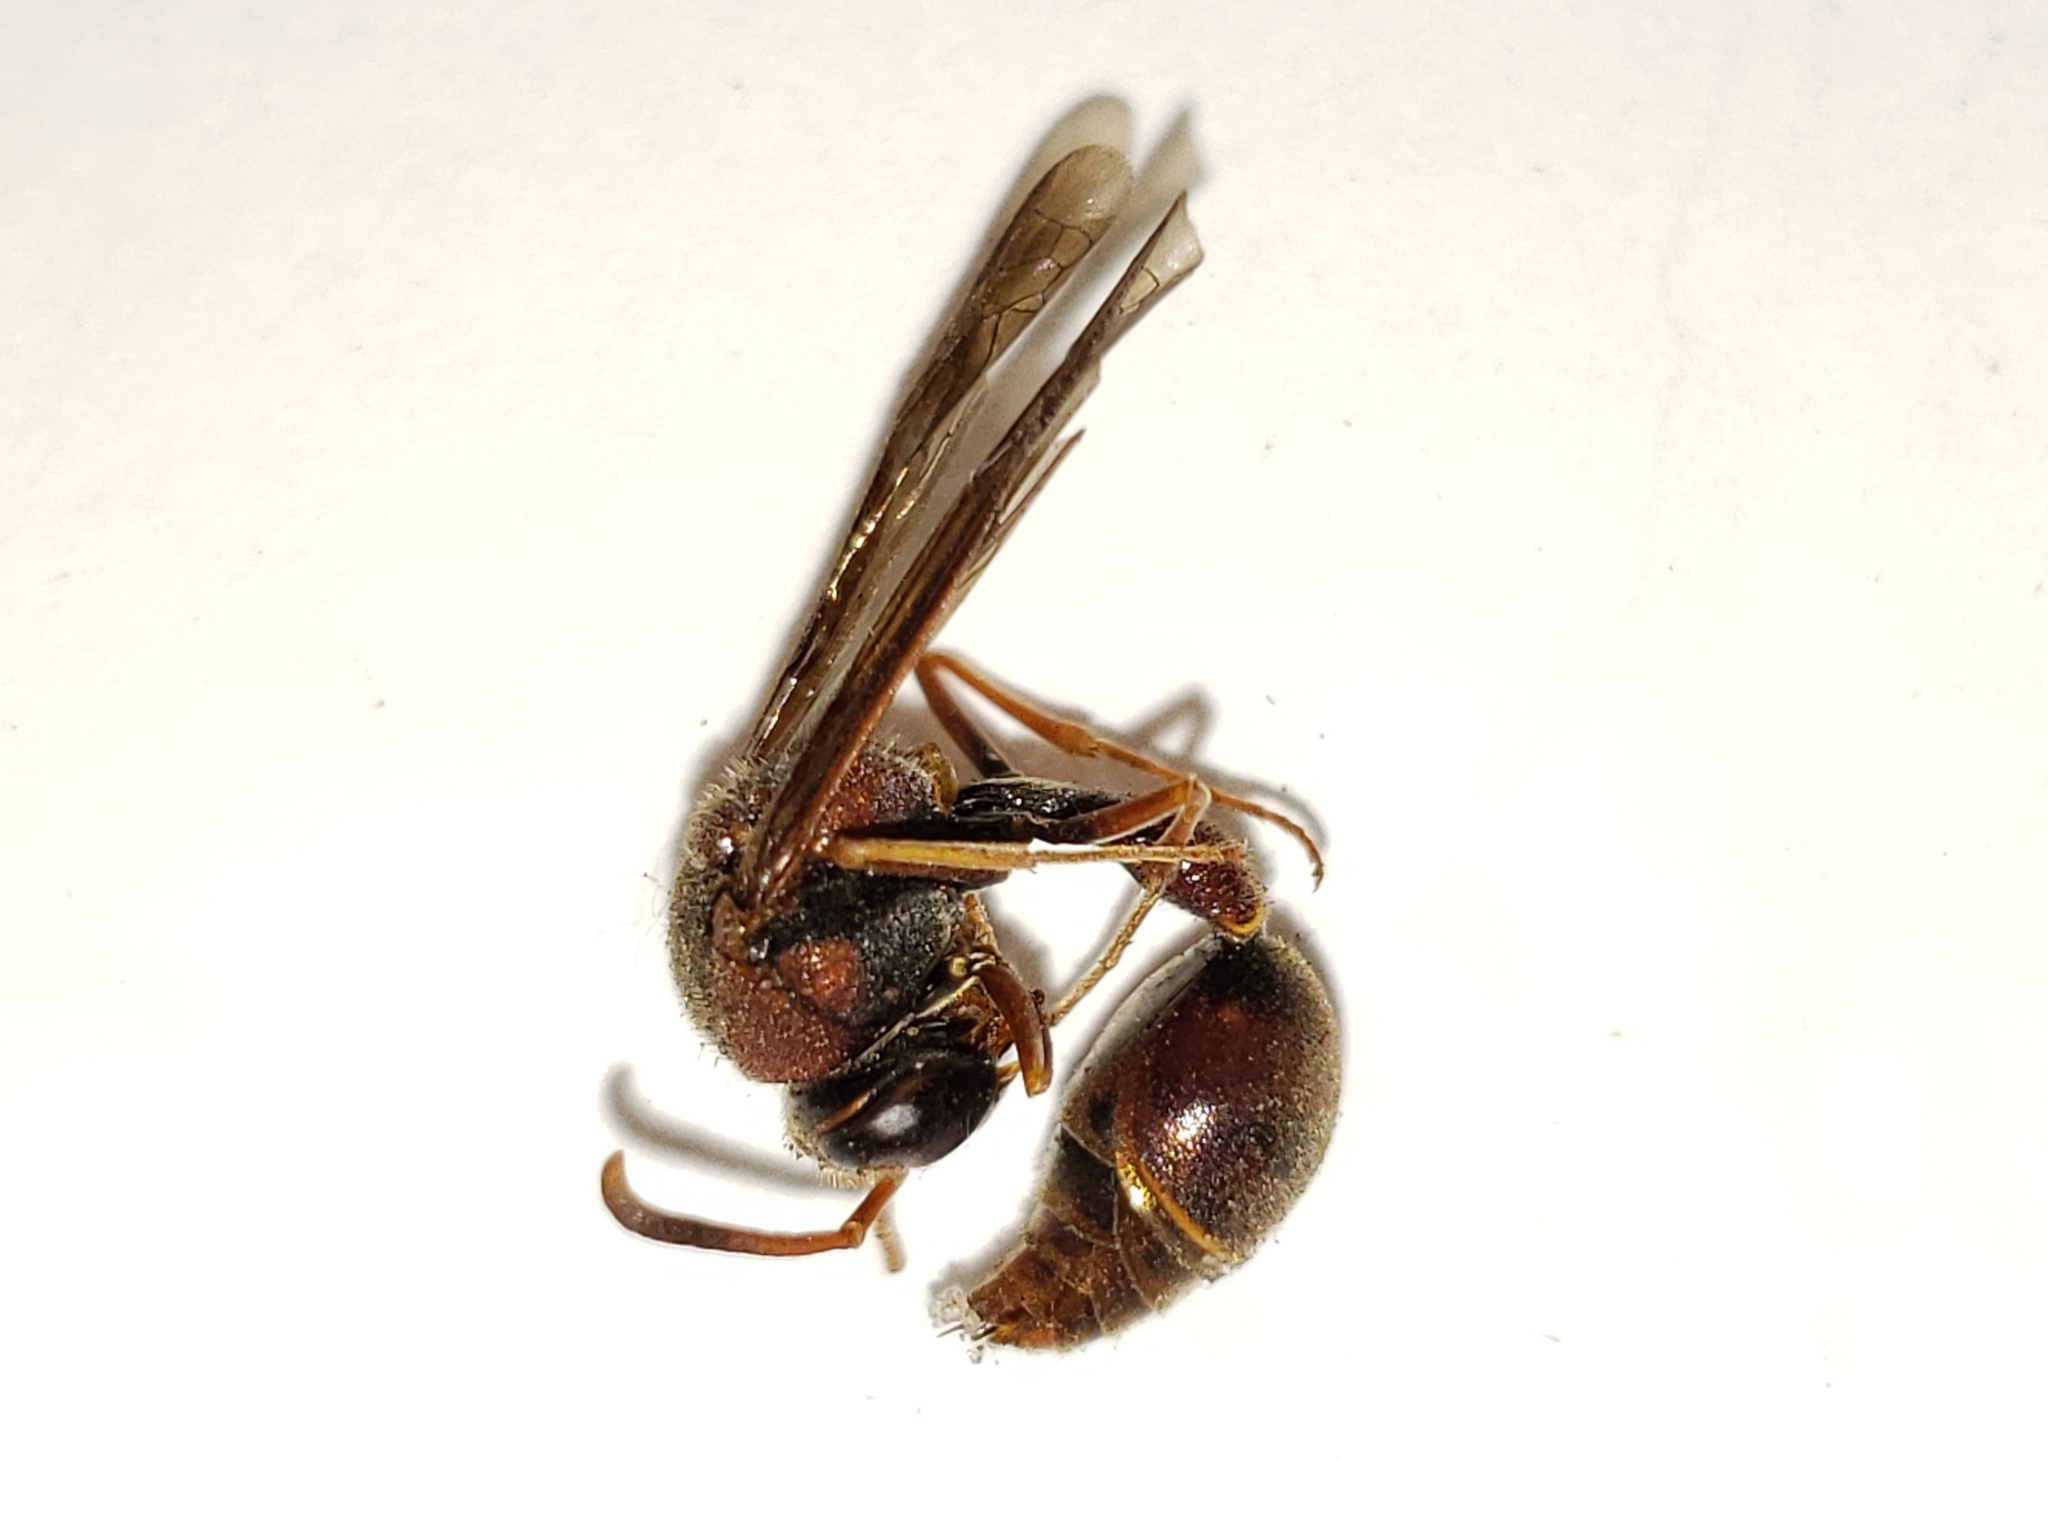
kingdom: Animalia
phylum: Arthropoda
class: Insecta
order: Hymenoptera
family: Vespidae
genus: Eumenes
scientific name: Eumenes smithii
